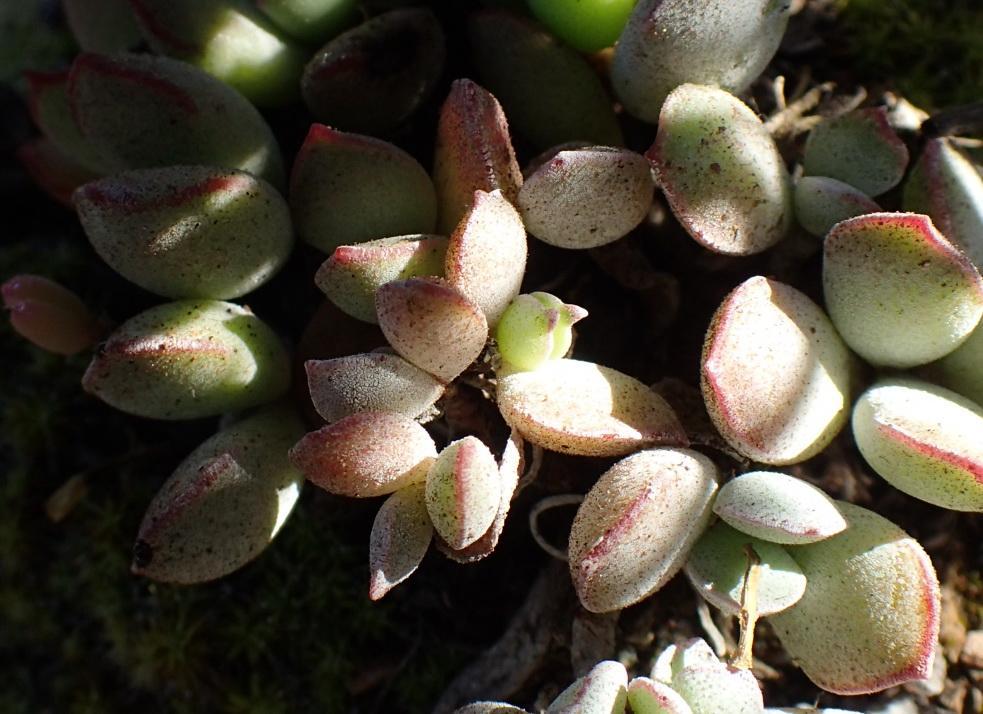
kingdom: Plantae
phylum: Tracheophyta
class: Magnoliopsida
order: Saxifragales
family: Crassulaceae
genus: Cotyledon
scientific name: Cotyledon papillaris
